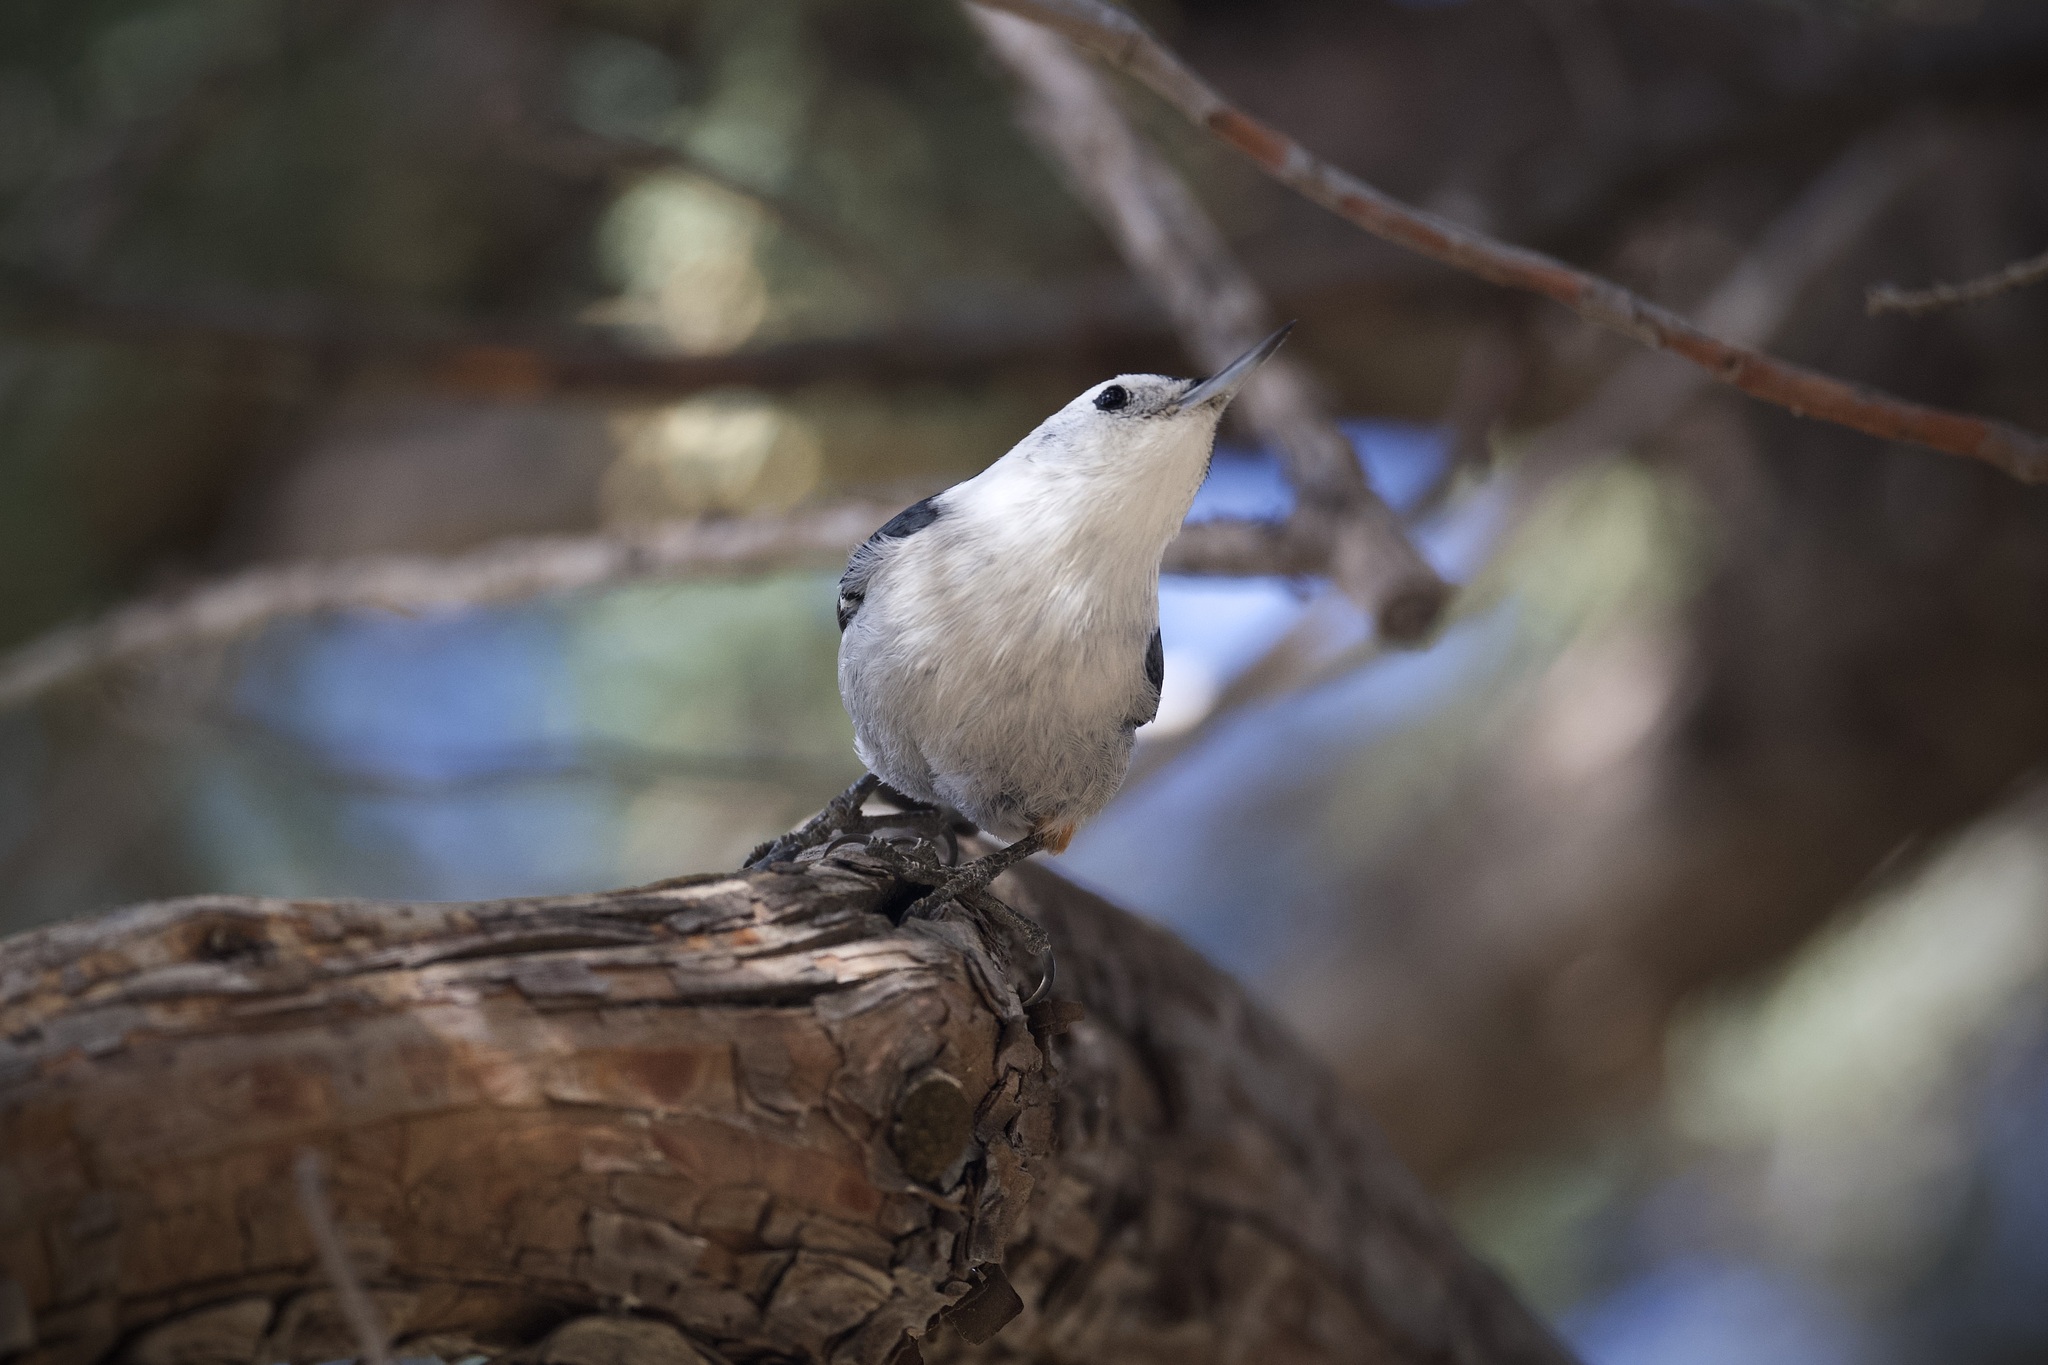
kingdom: Animalia
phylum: Chordata
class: Aves
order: Passeriformes
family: Sittidae
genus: Sitta
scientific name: Sitta carolinensis
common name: White-breasted nuthatch
